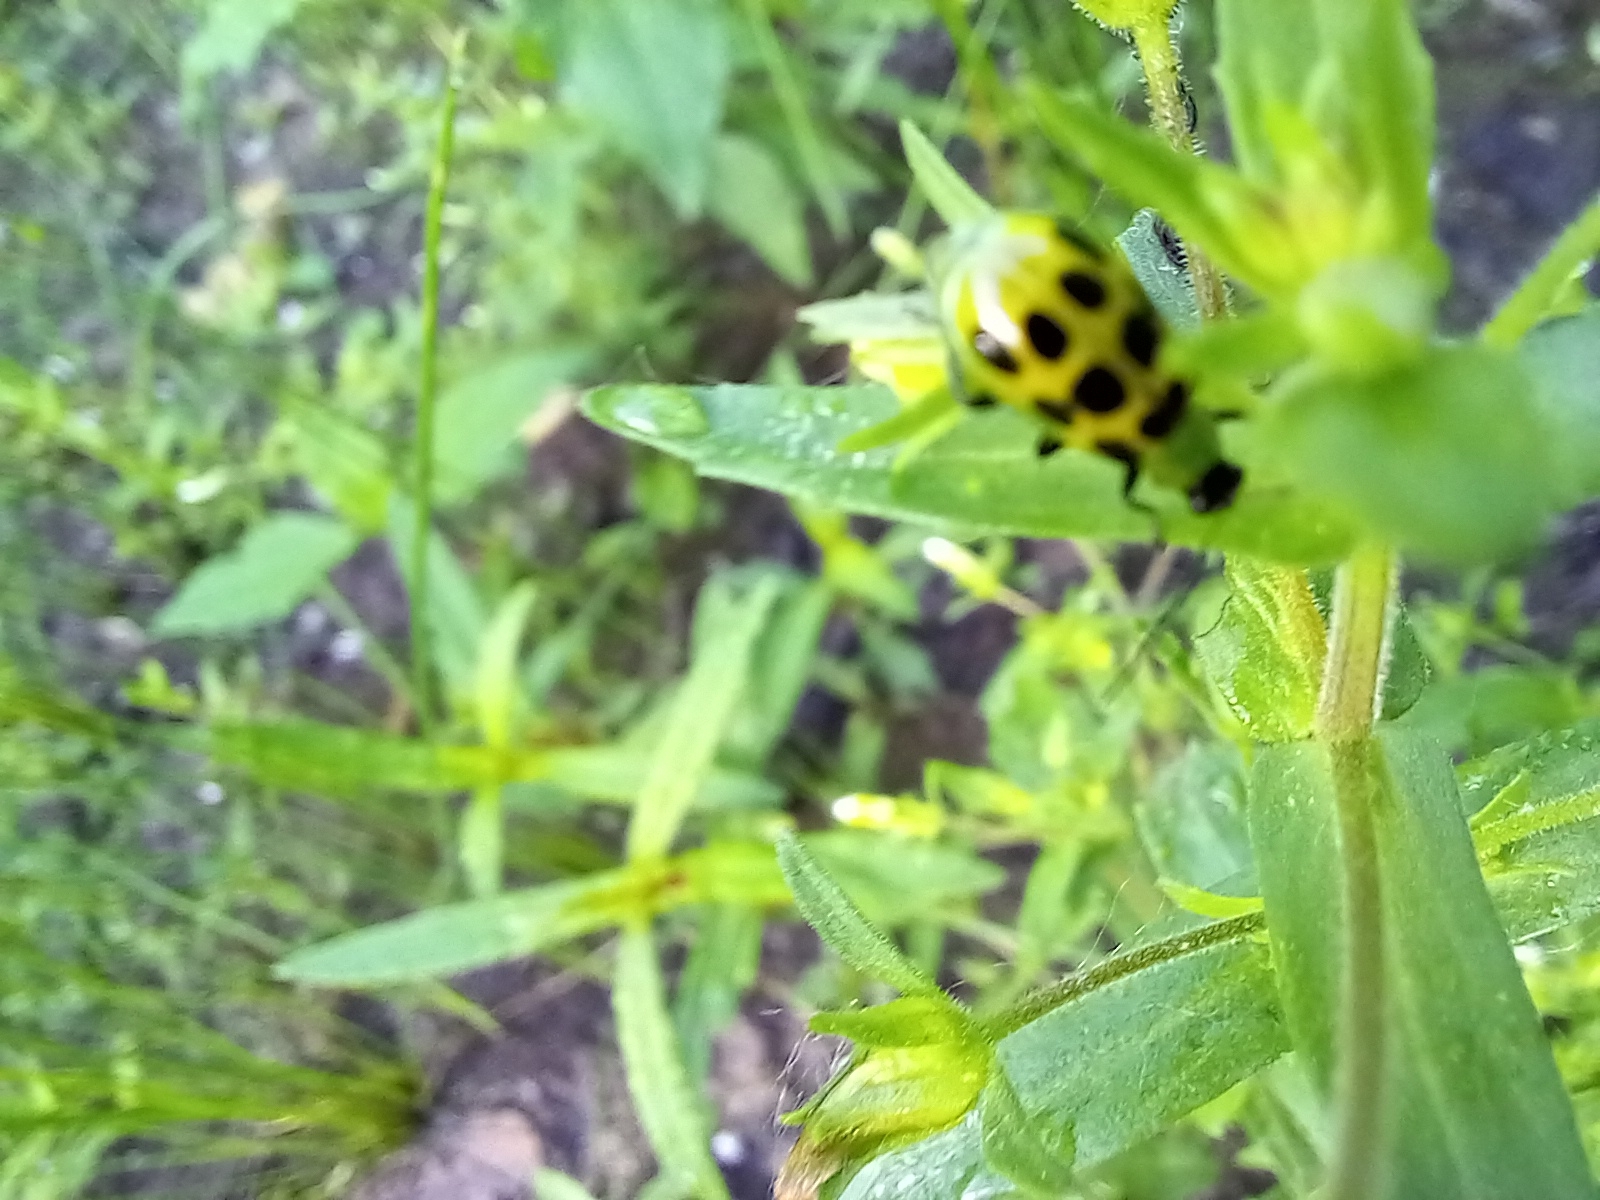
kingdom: Animalia
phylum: Arthropoda
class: Insecta
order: Coleoptera
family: Chrysomelidae
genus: Diabrotica
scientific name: Diabrotica undecimpunctata
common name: Spotted cucumber beetle
